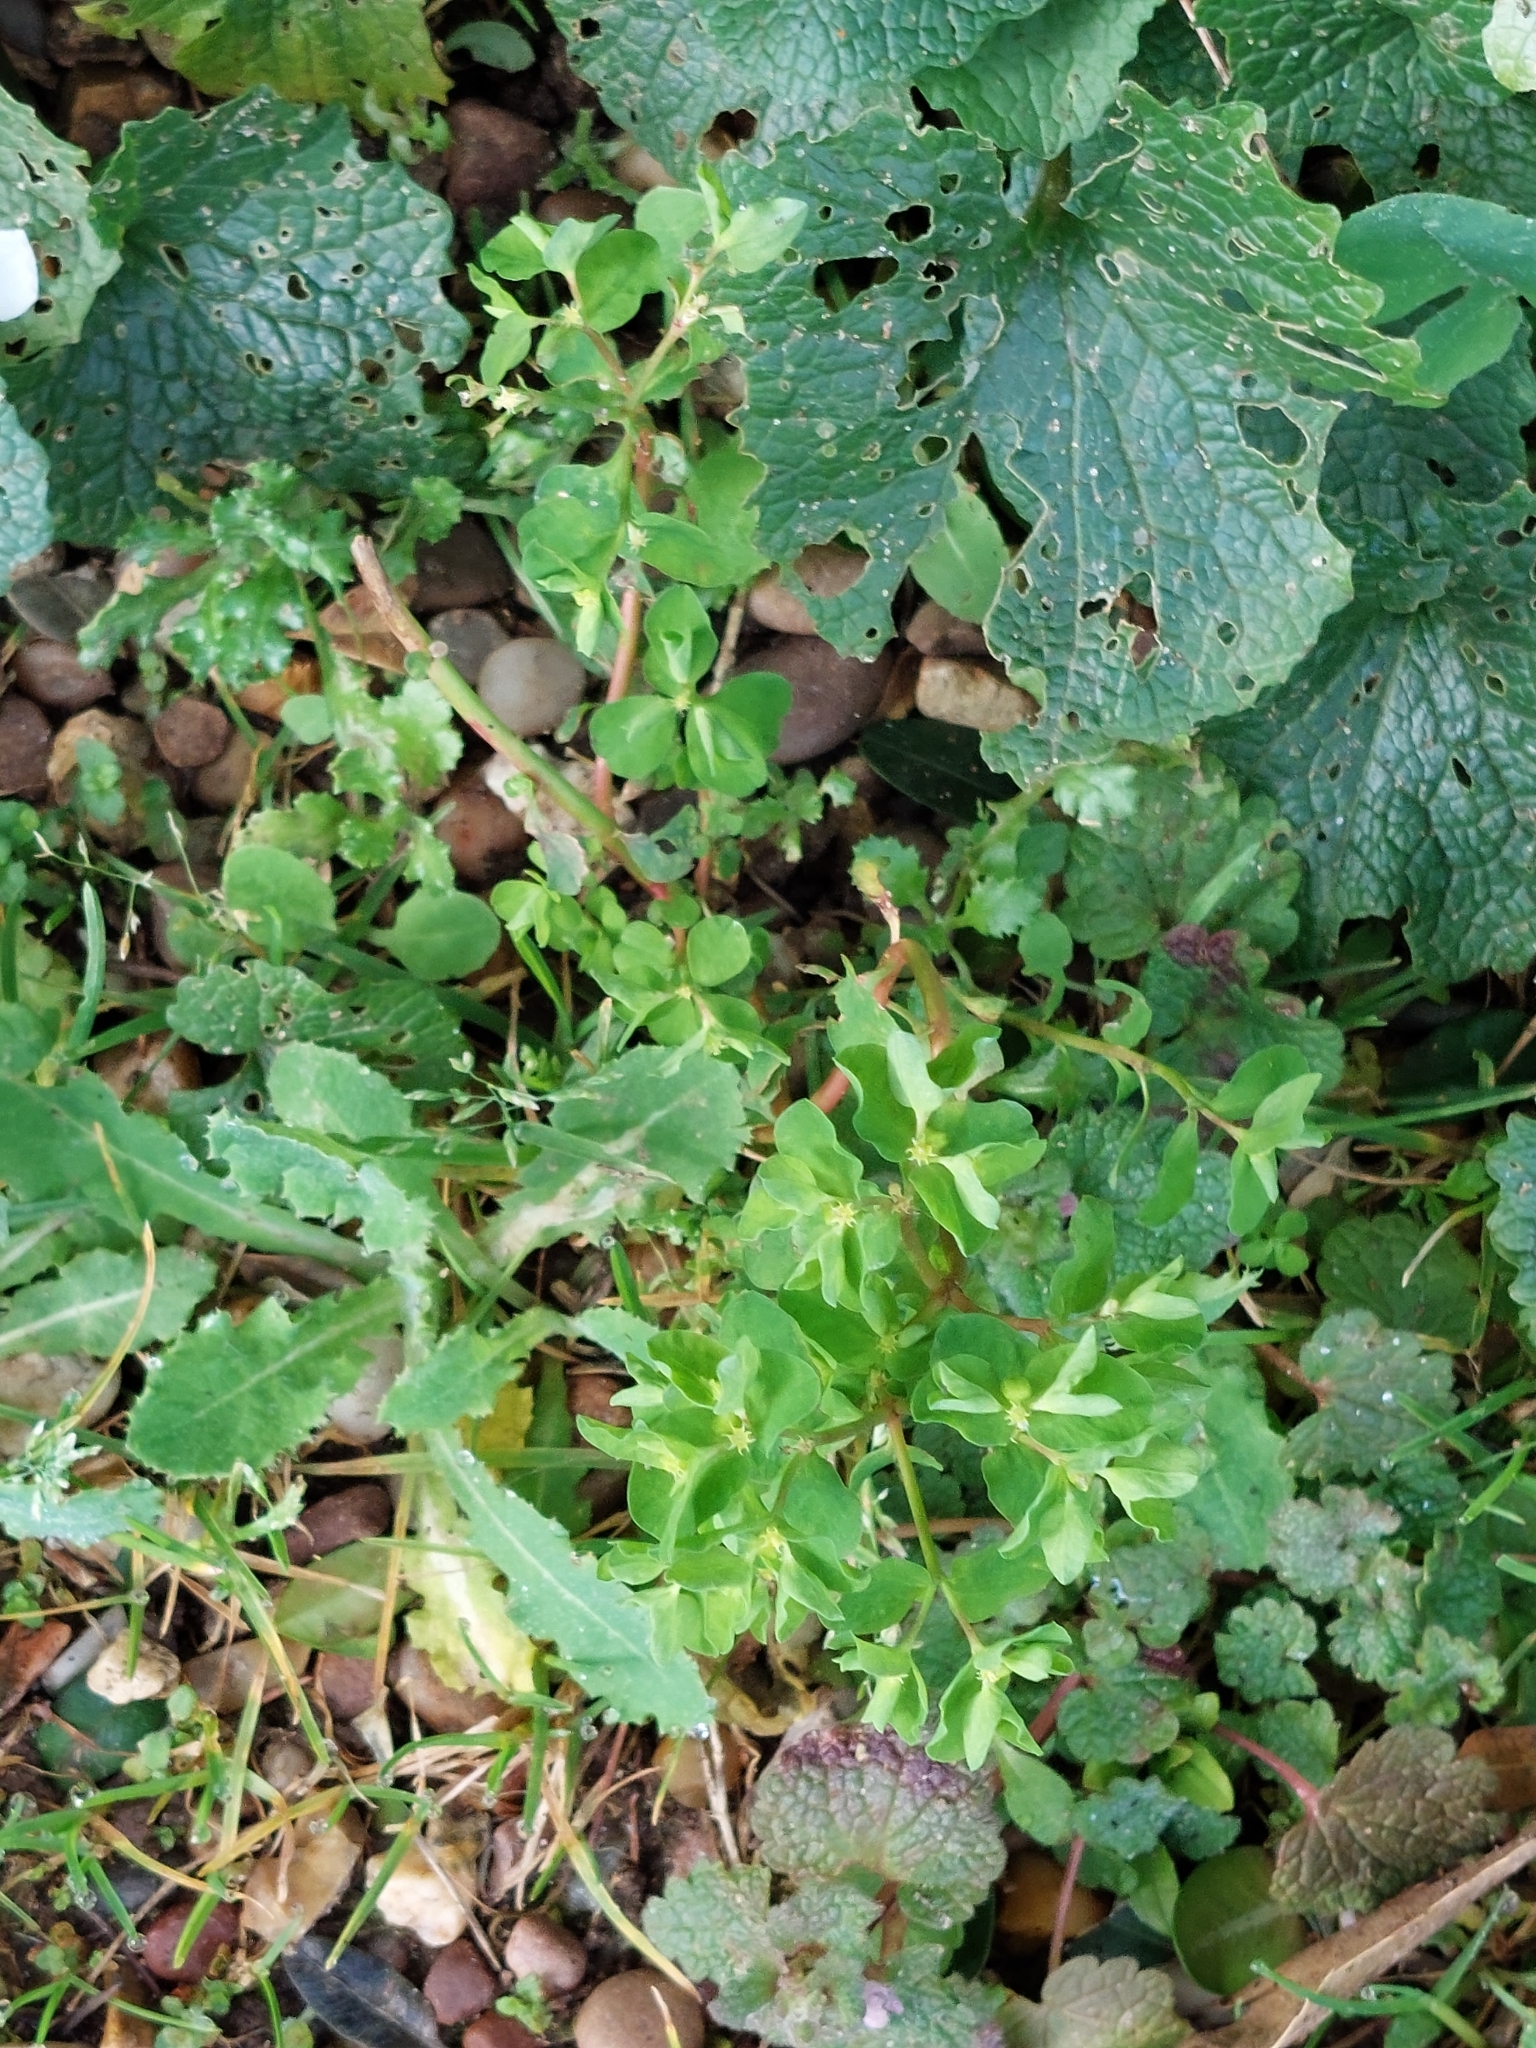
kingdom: Plantae
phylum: Tracheophyta
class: Magnoliopsida
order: Malpighiales
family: Euphorbiaceae
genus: Euphorbia
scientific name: Euphorbia peplus
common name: Petty spurge
